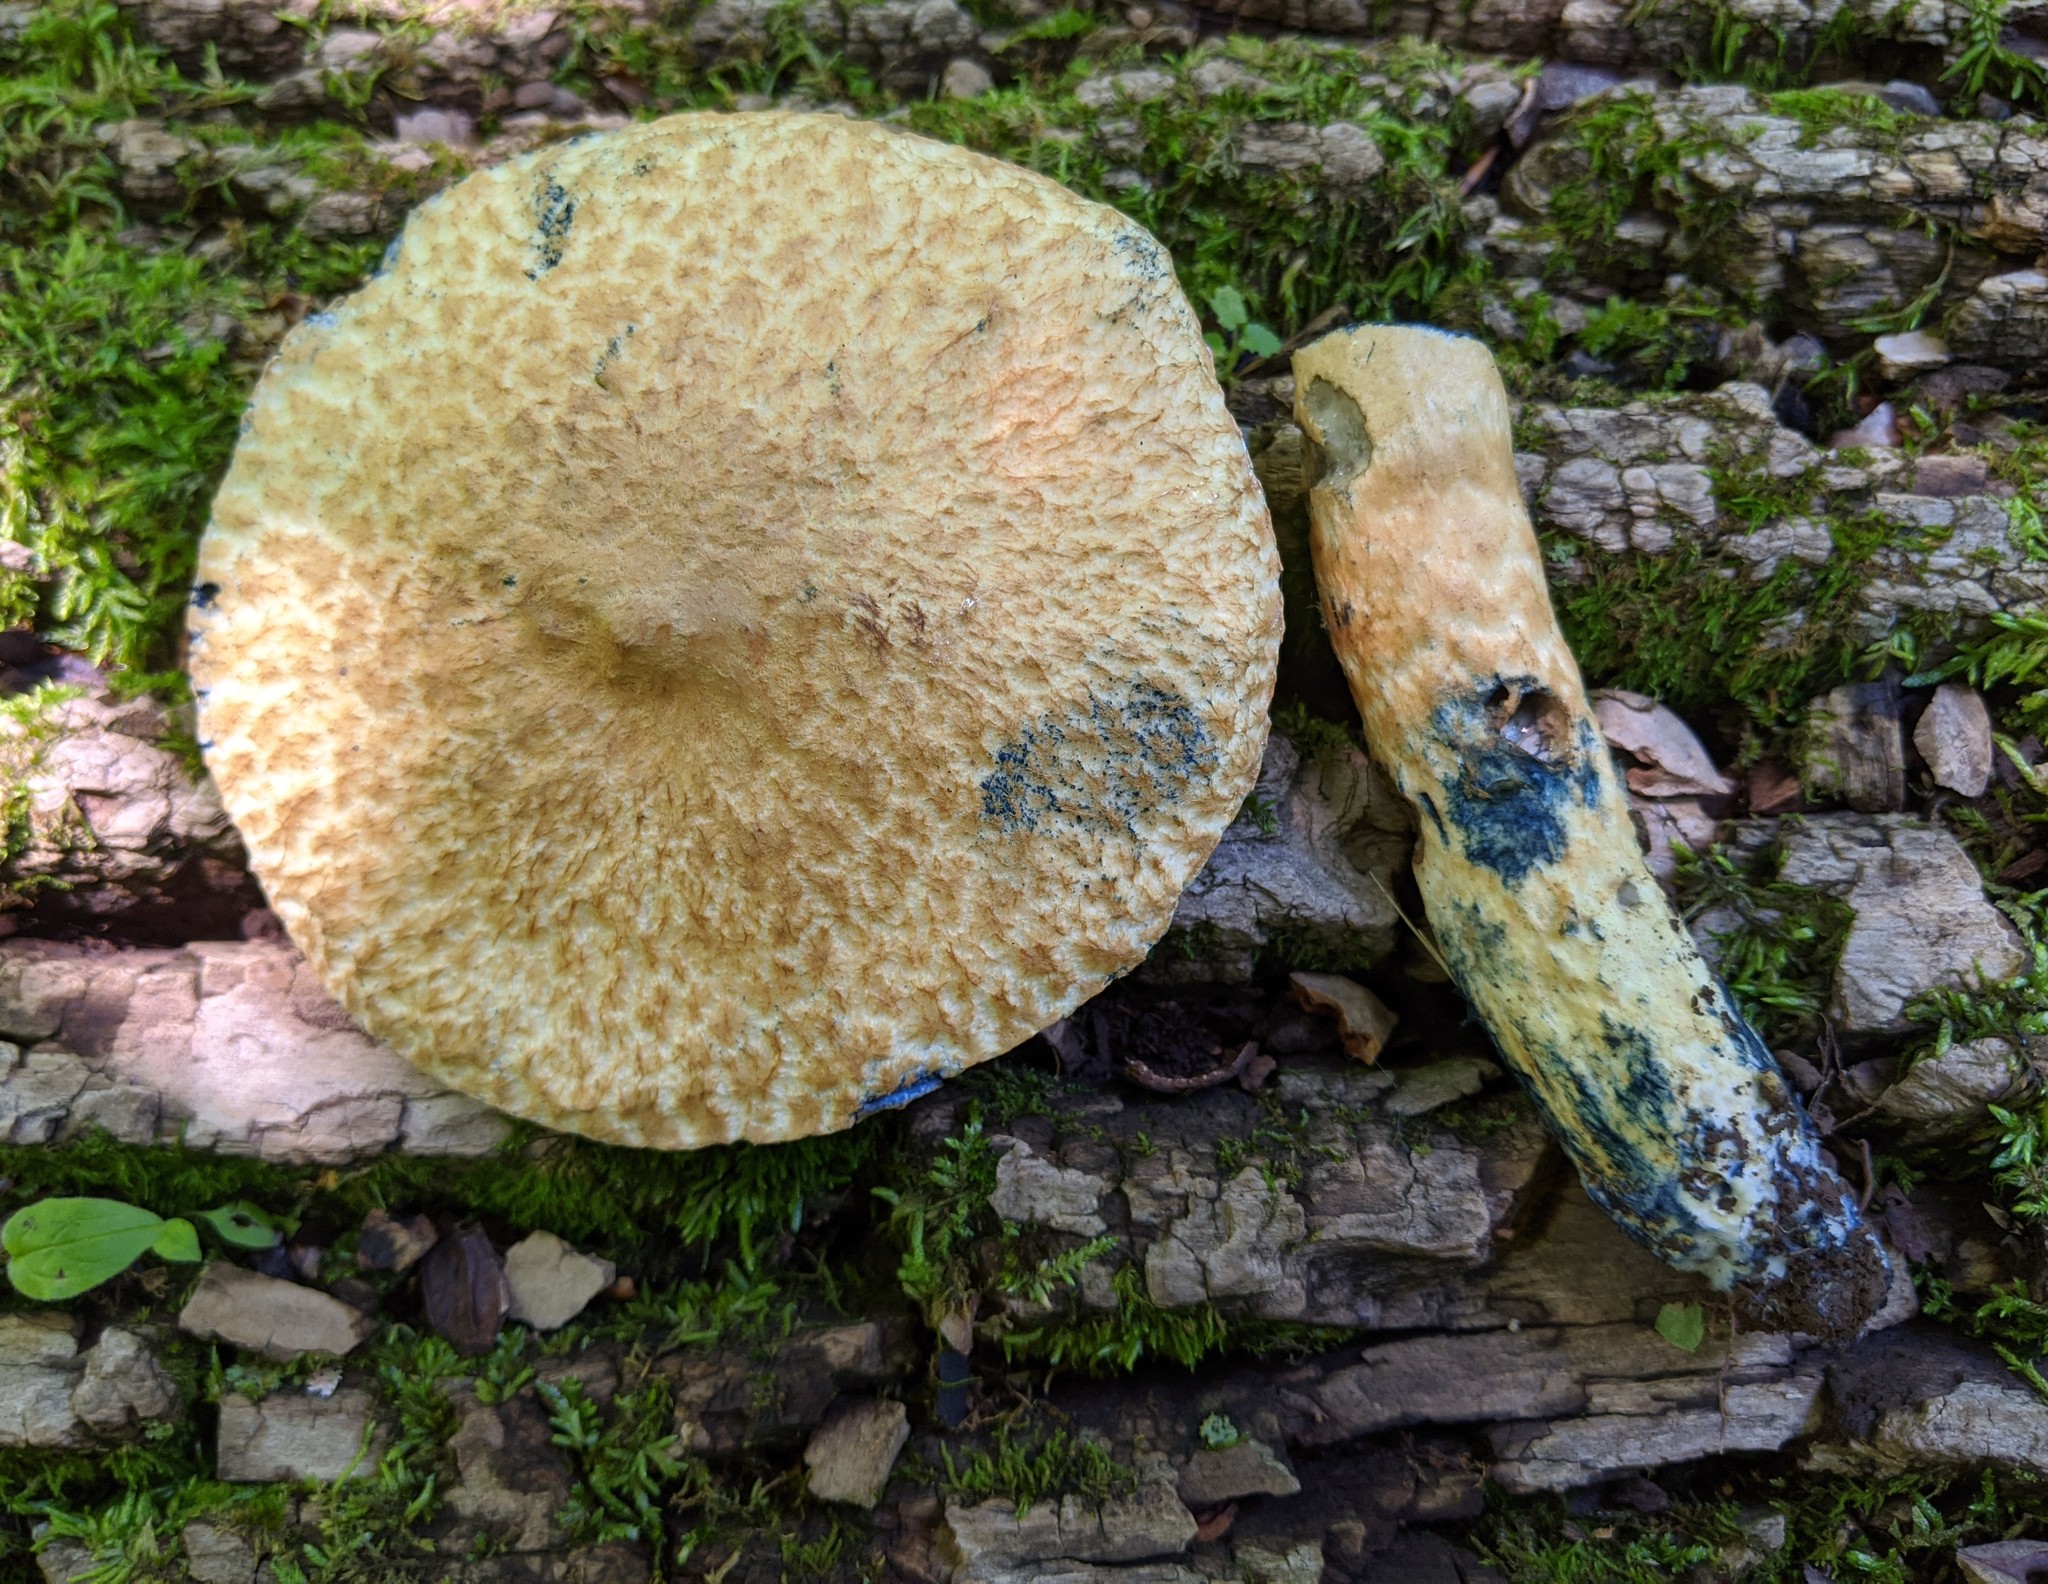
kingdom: Fungi
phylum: Basidiomycota
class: Agaricomycetes
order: Boletales
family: Gyroporaceae
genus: Gyroporus
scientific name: Gyroporus cyanescens
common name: Cornflower bolete
